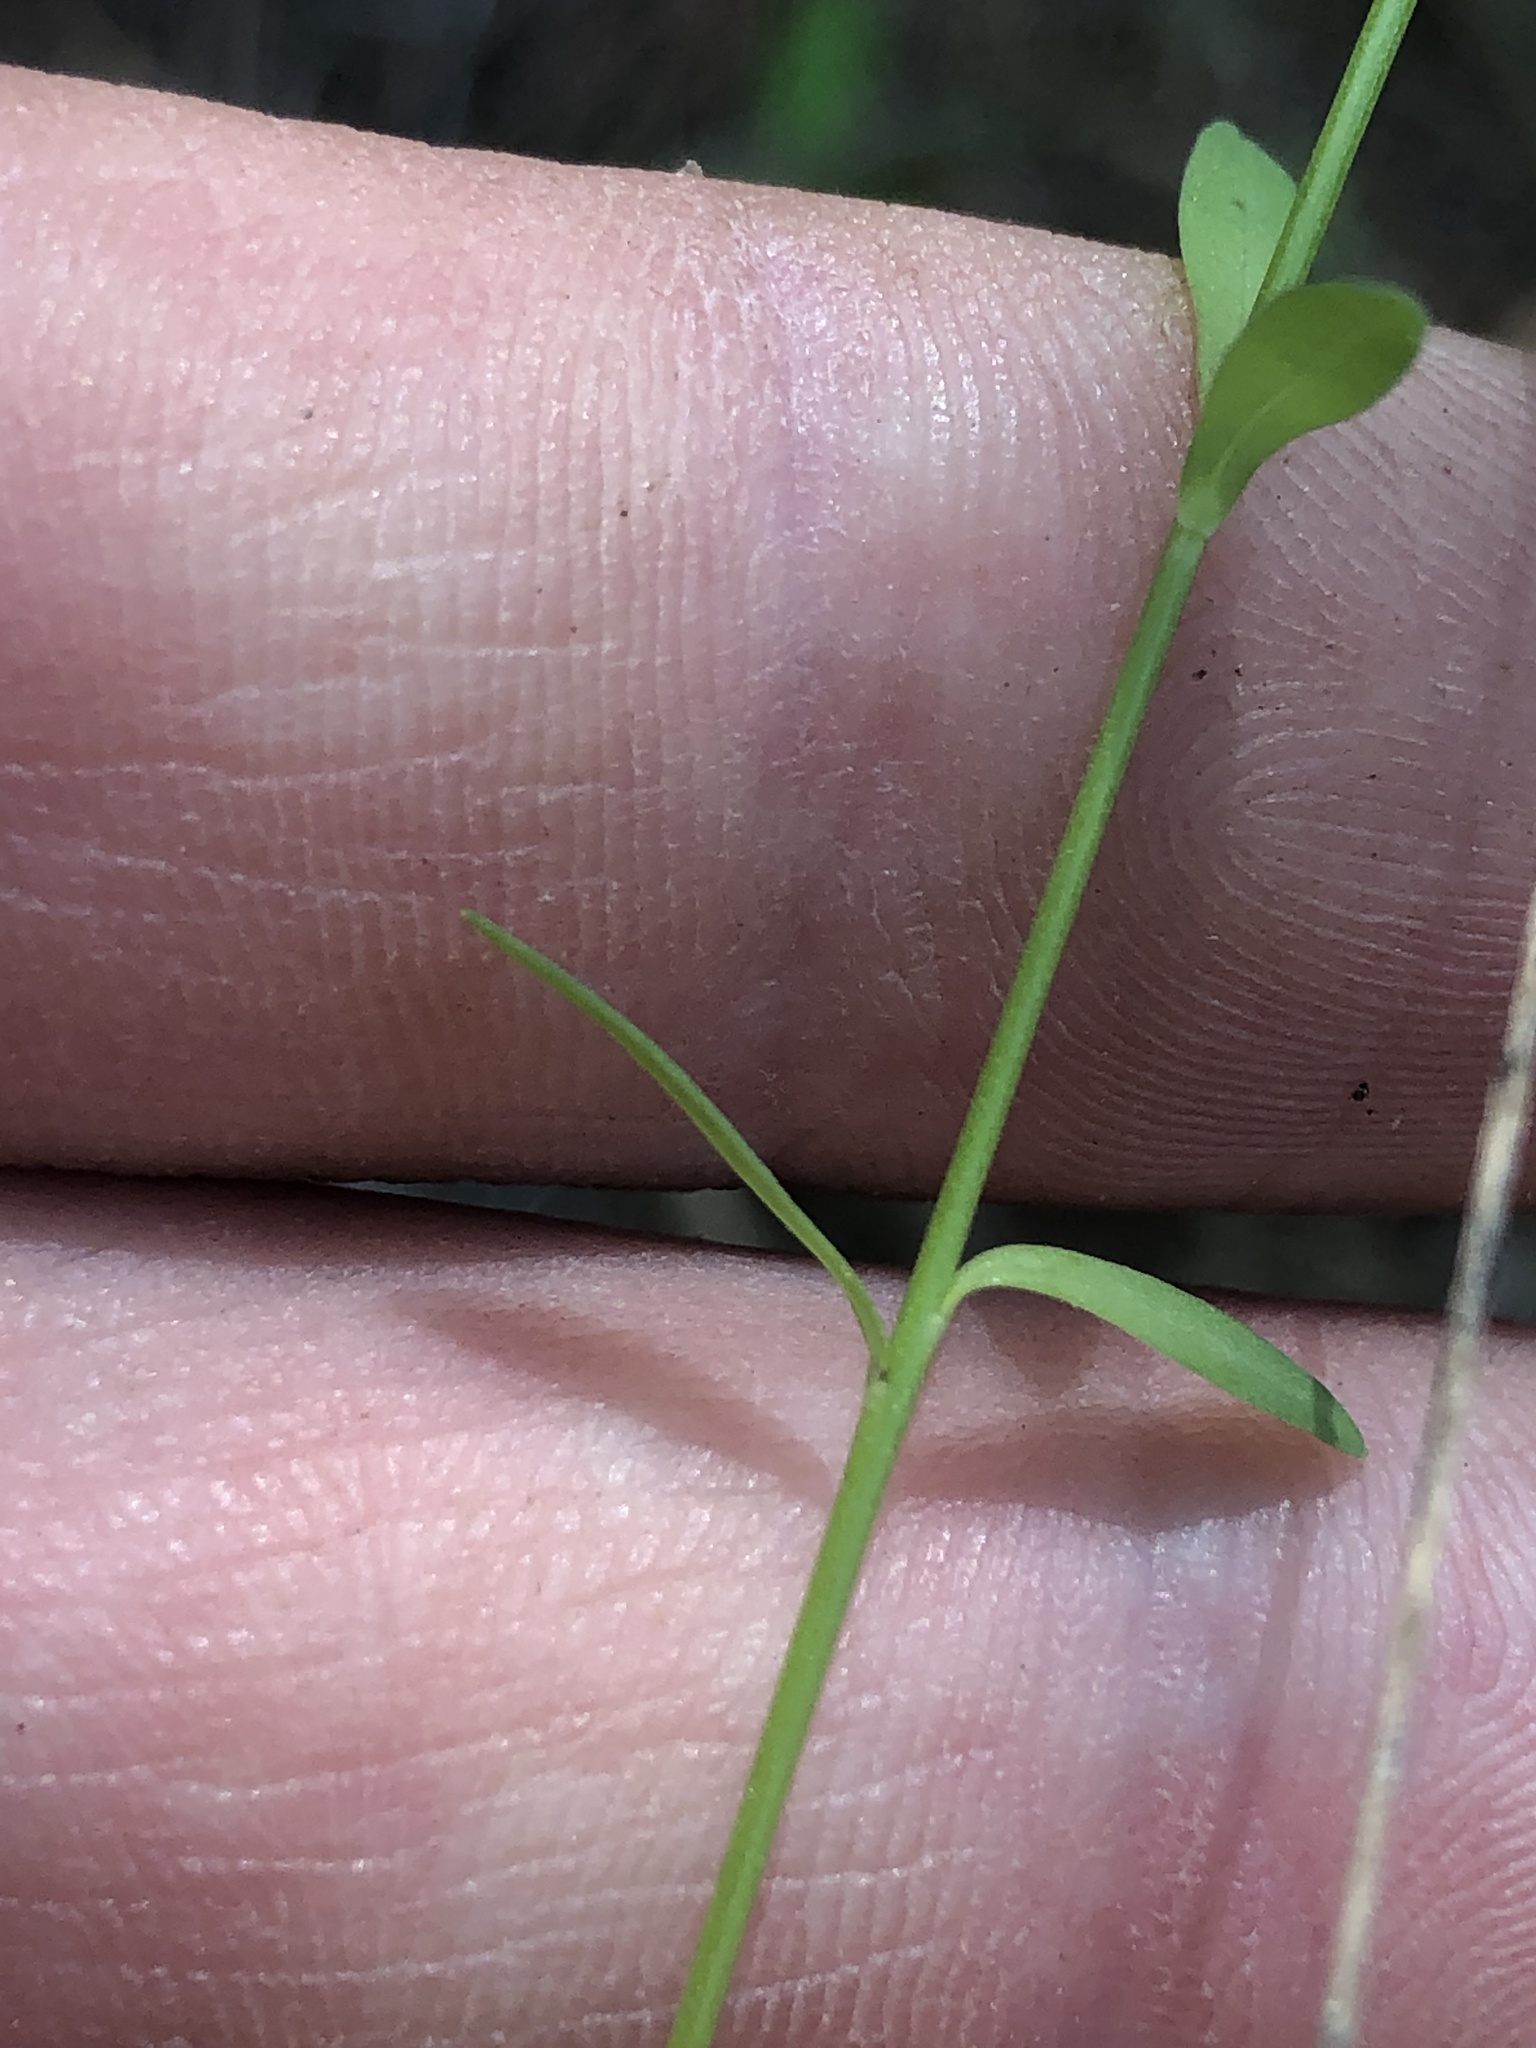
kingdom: Plantae
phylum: Tracheophyta
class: Magnoliopsida
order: Malpighiales
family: Linaceae
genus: Linum
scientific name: Linum sulcatum
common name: Grooved flax
